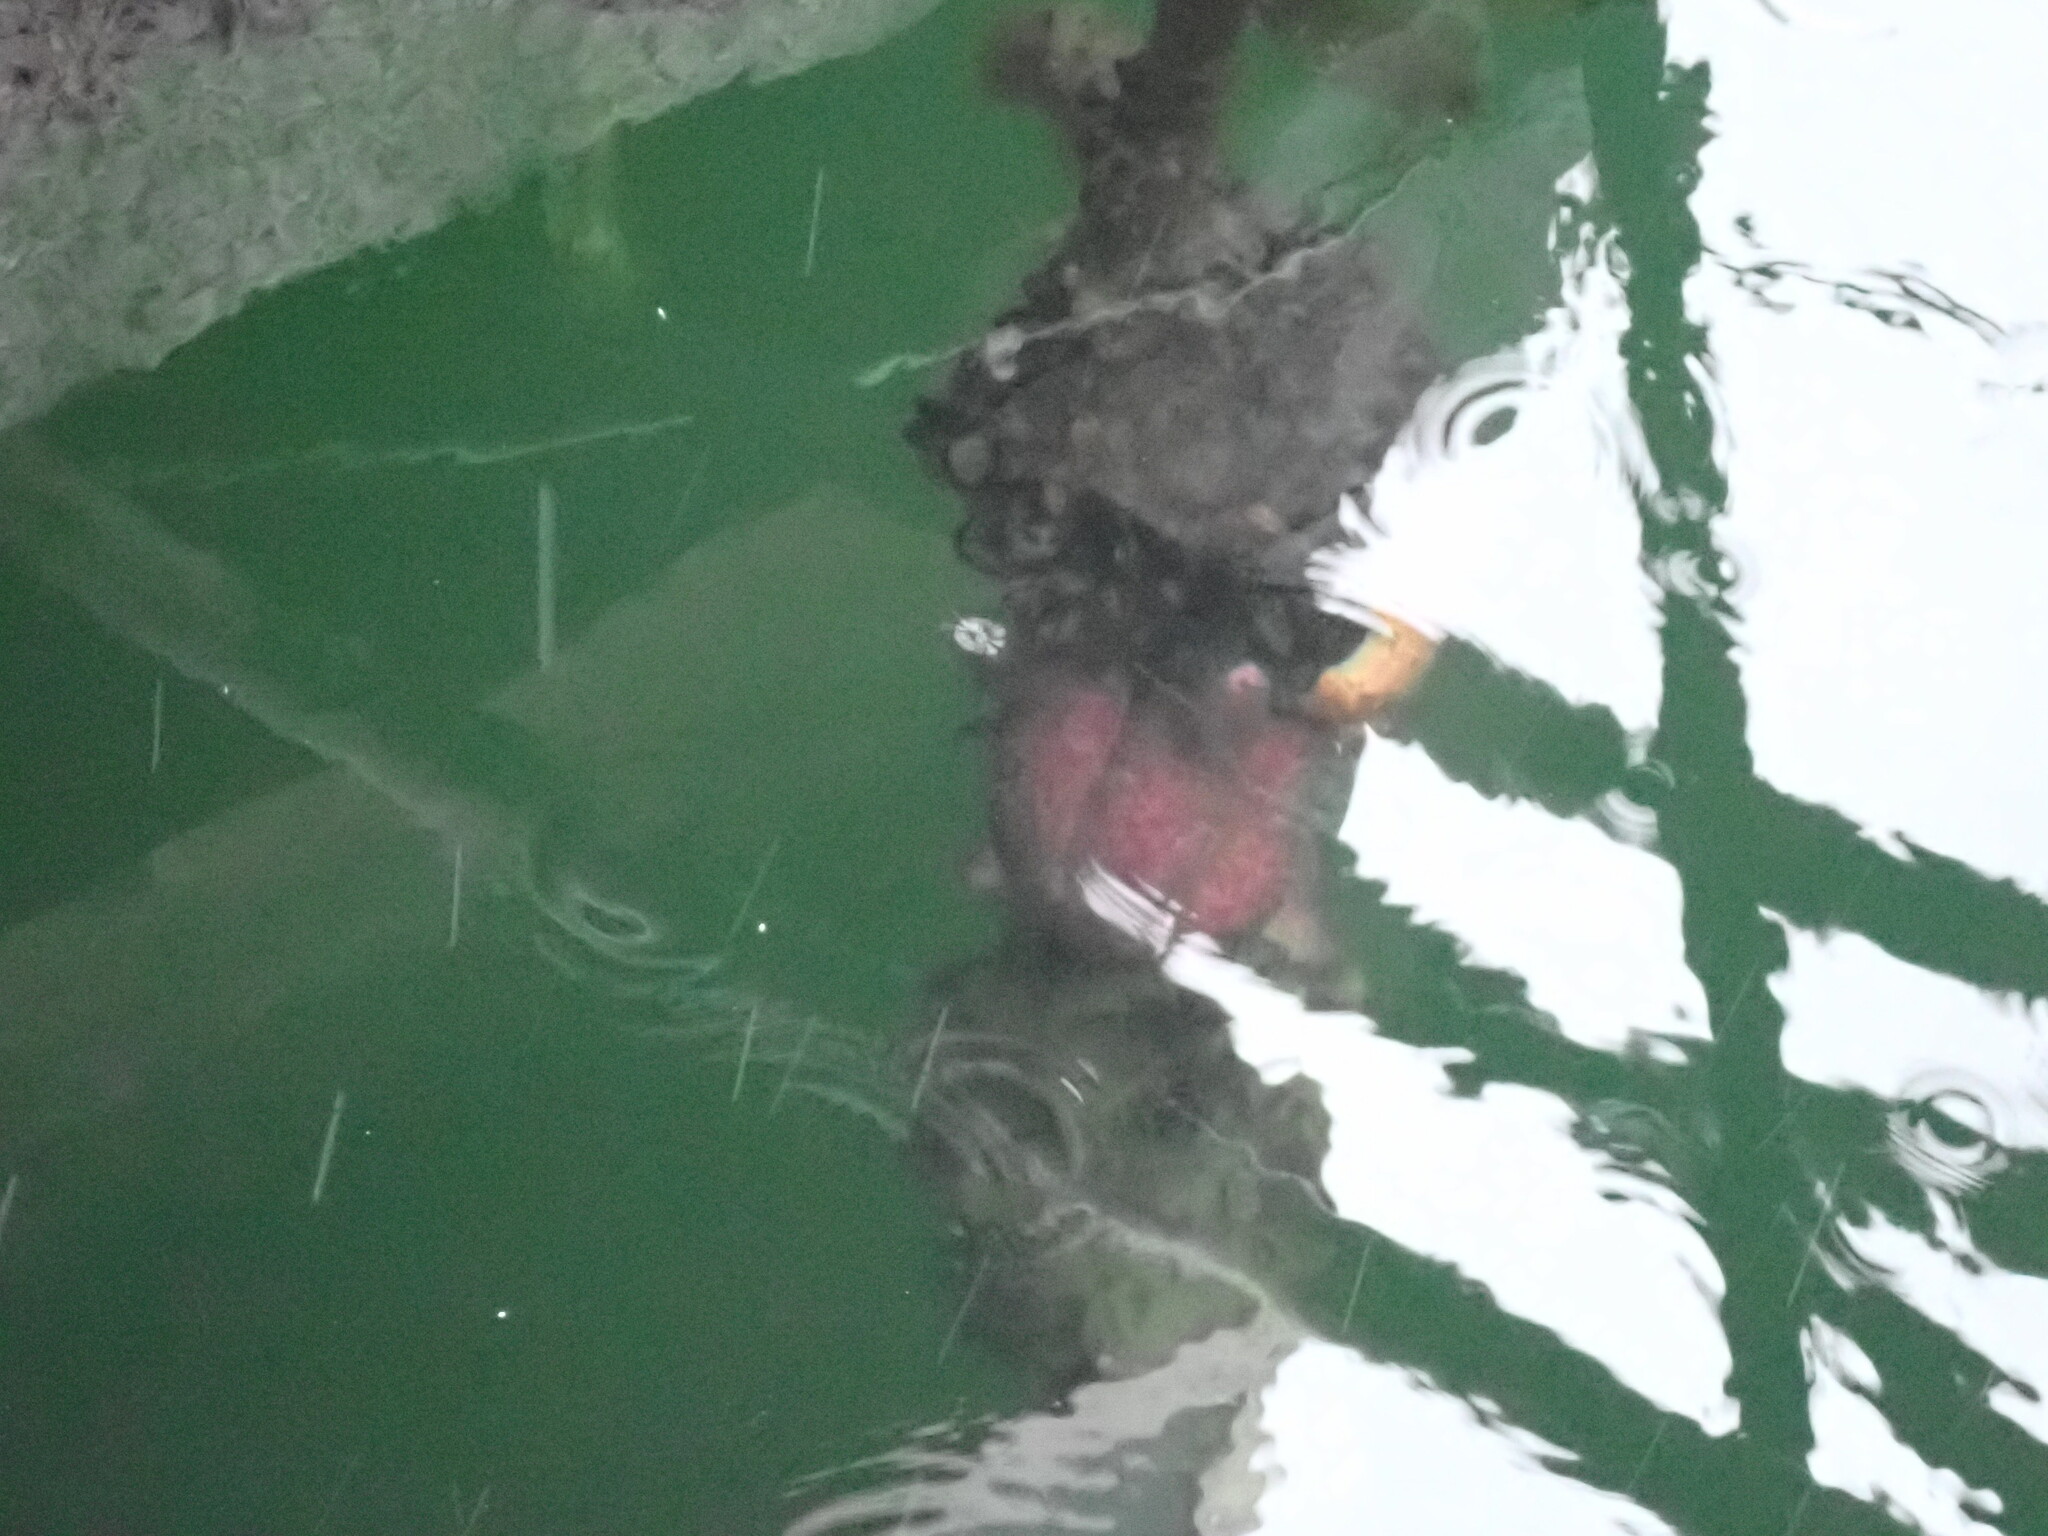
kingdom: Animalia
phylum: Echinodermata
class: Asteroidea
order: Forcipulatida
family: Asteriidae
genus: Pisaster
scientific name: Pisaster ochraceus
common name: Ochre stars
